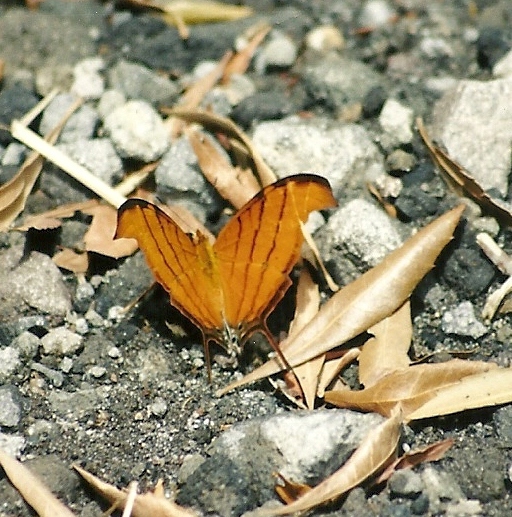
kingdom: Animalia
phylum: Arthropoda
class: Insecta
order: Lepidoptera
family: Nymphalidae
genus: Marpesia
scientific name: Marpesia petreus
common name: Red dagger wing
